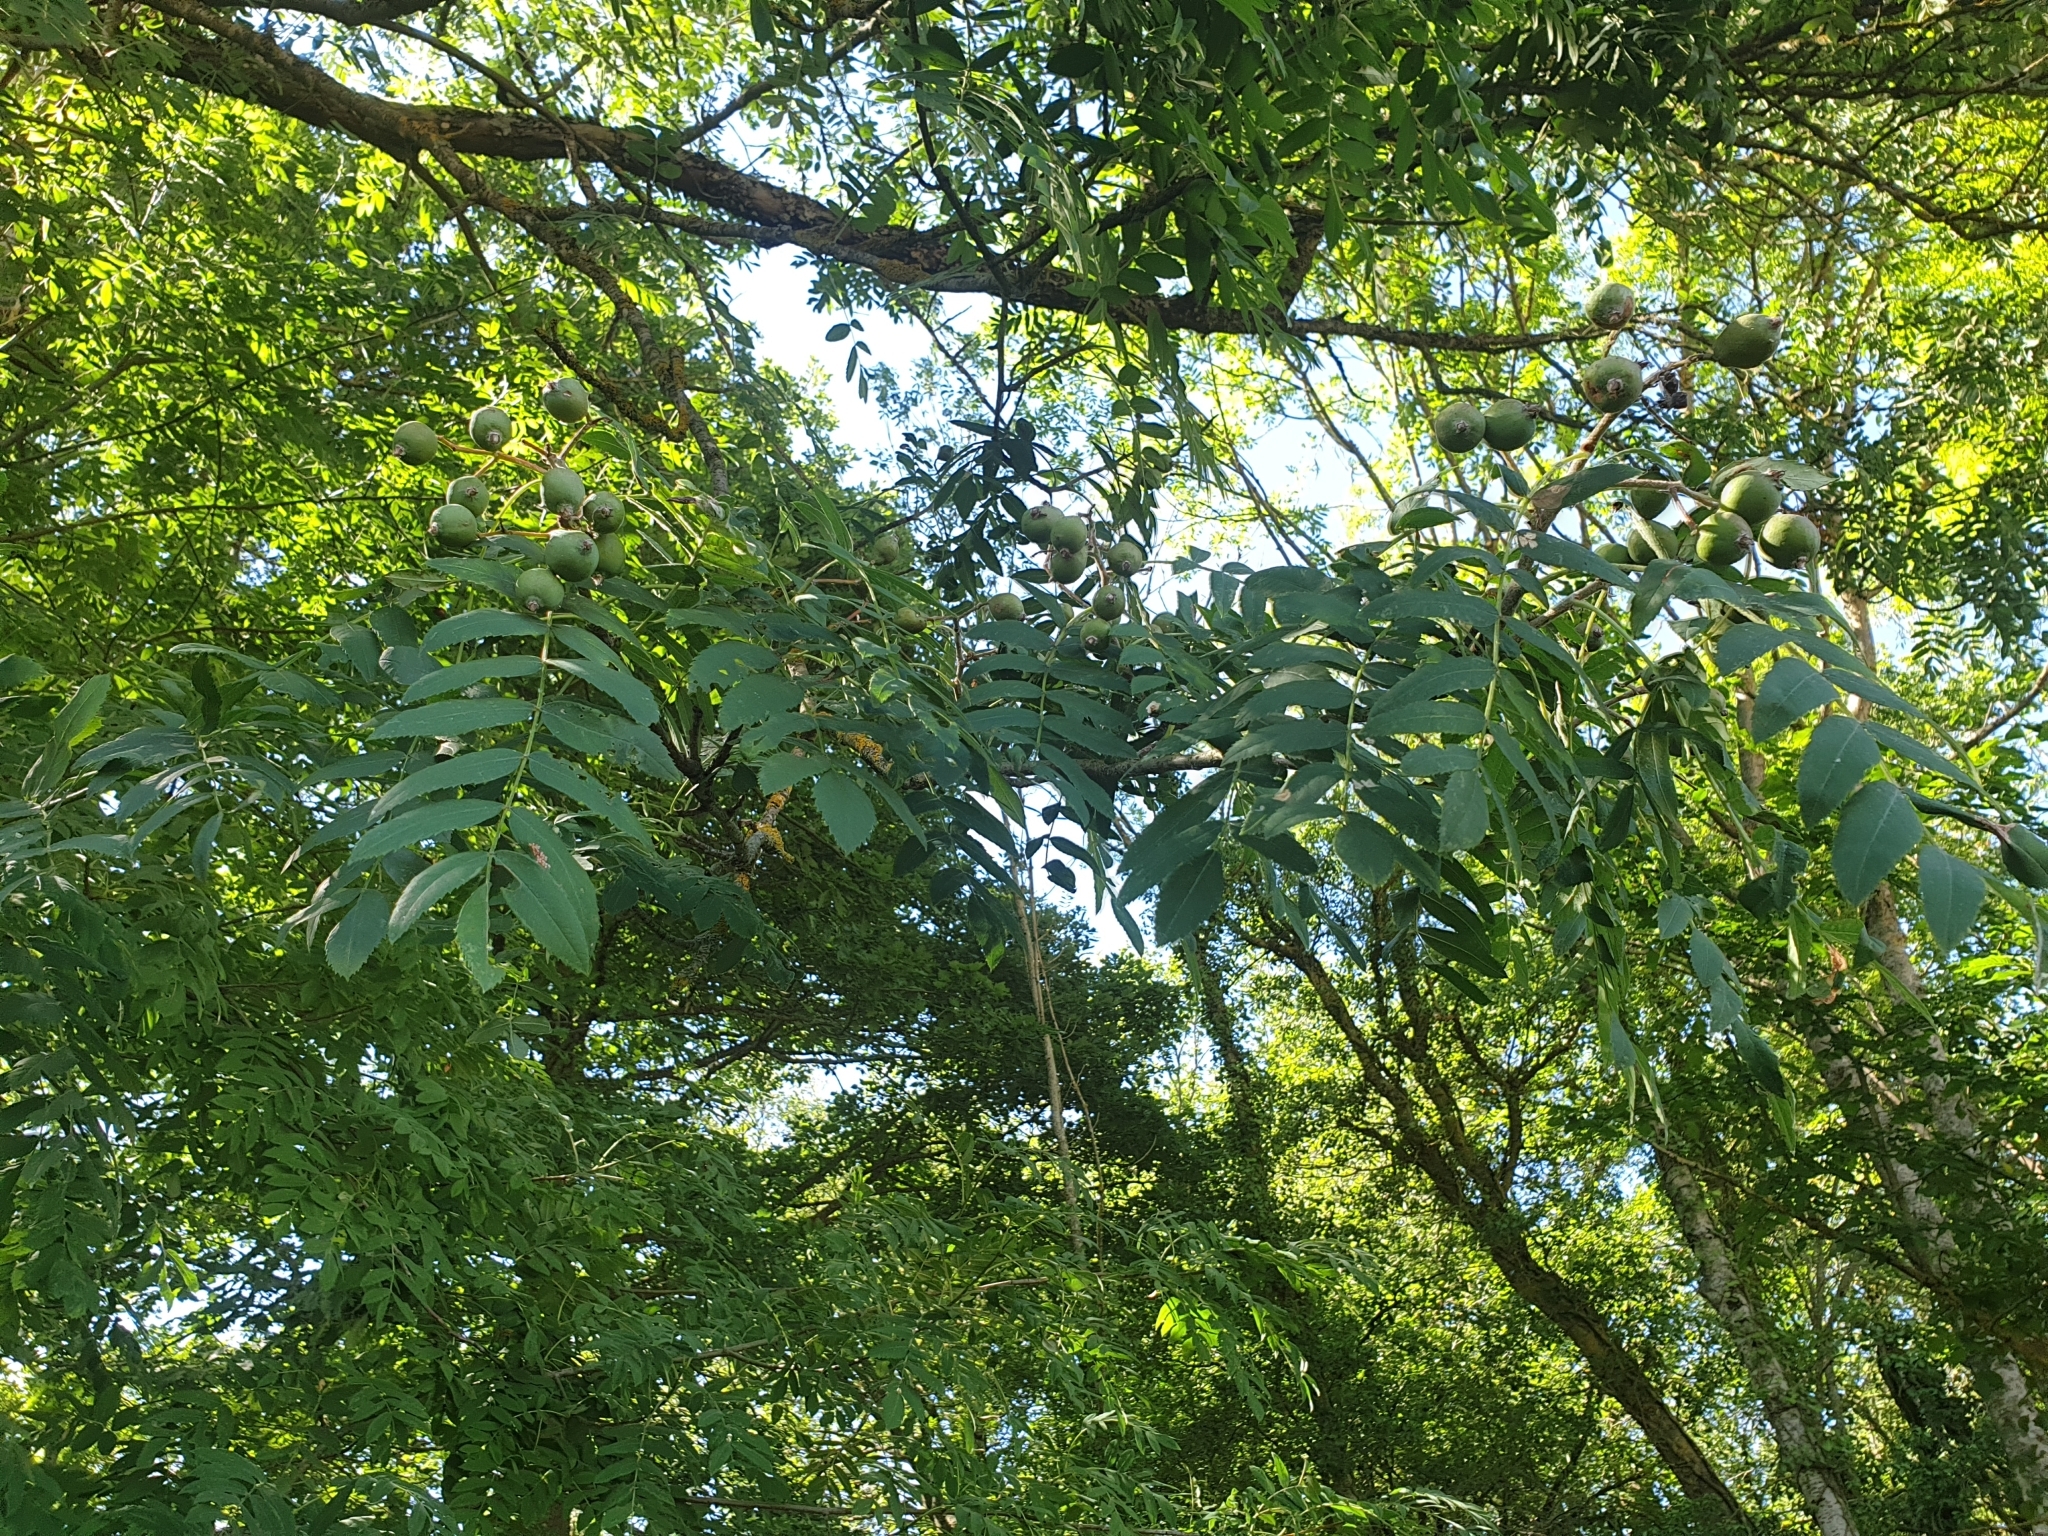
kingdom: Plantae
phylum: Tracheophyta
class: Magnoliopsida
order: Rosales
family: Rosaceae
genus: Cormus
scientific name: Cormus domestica
